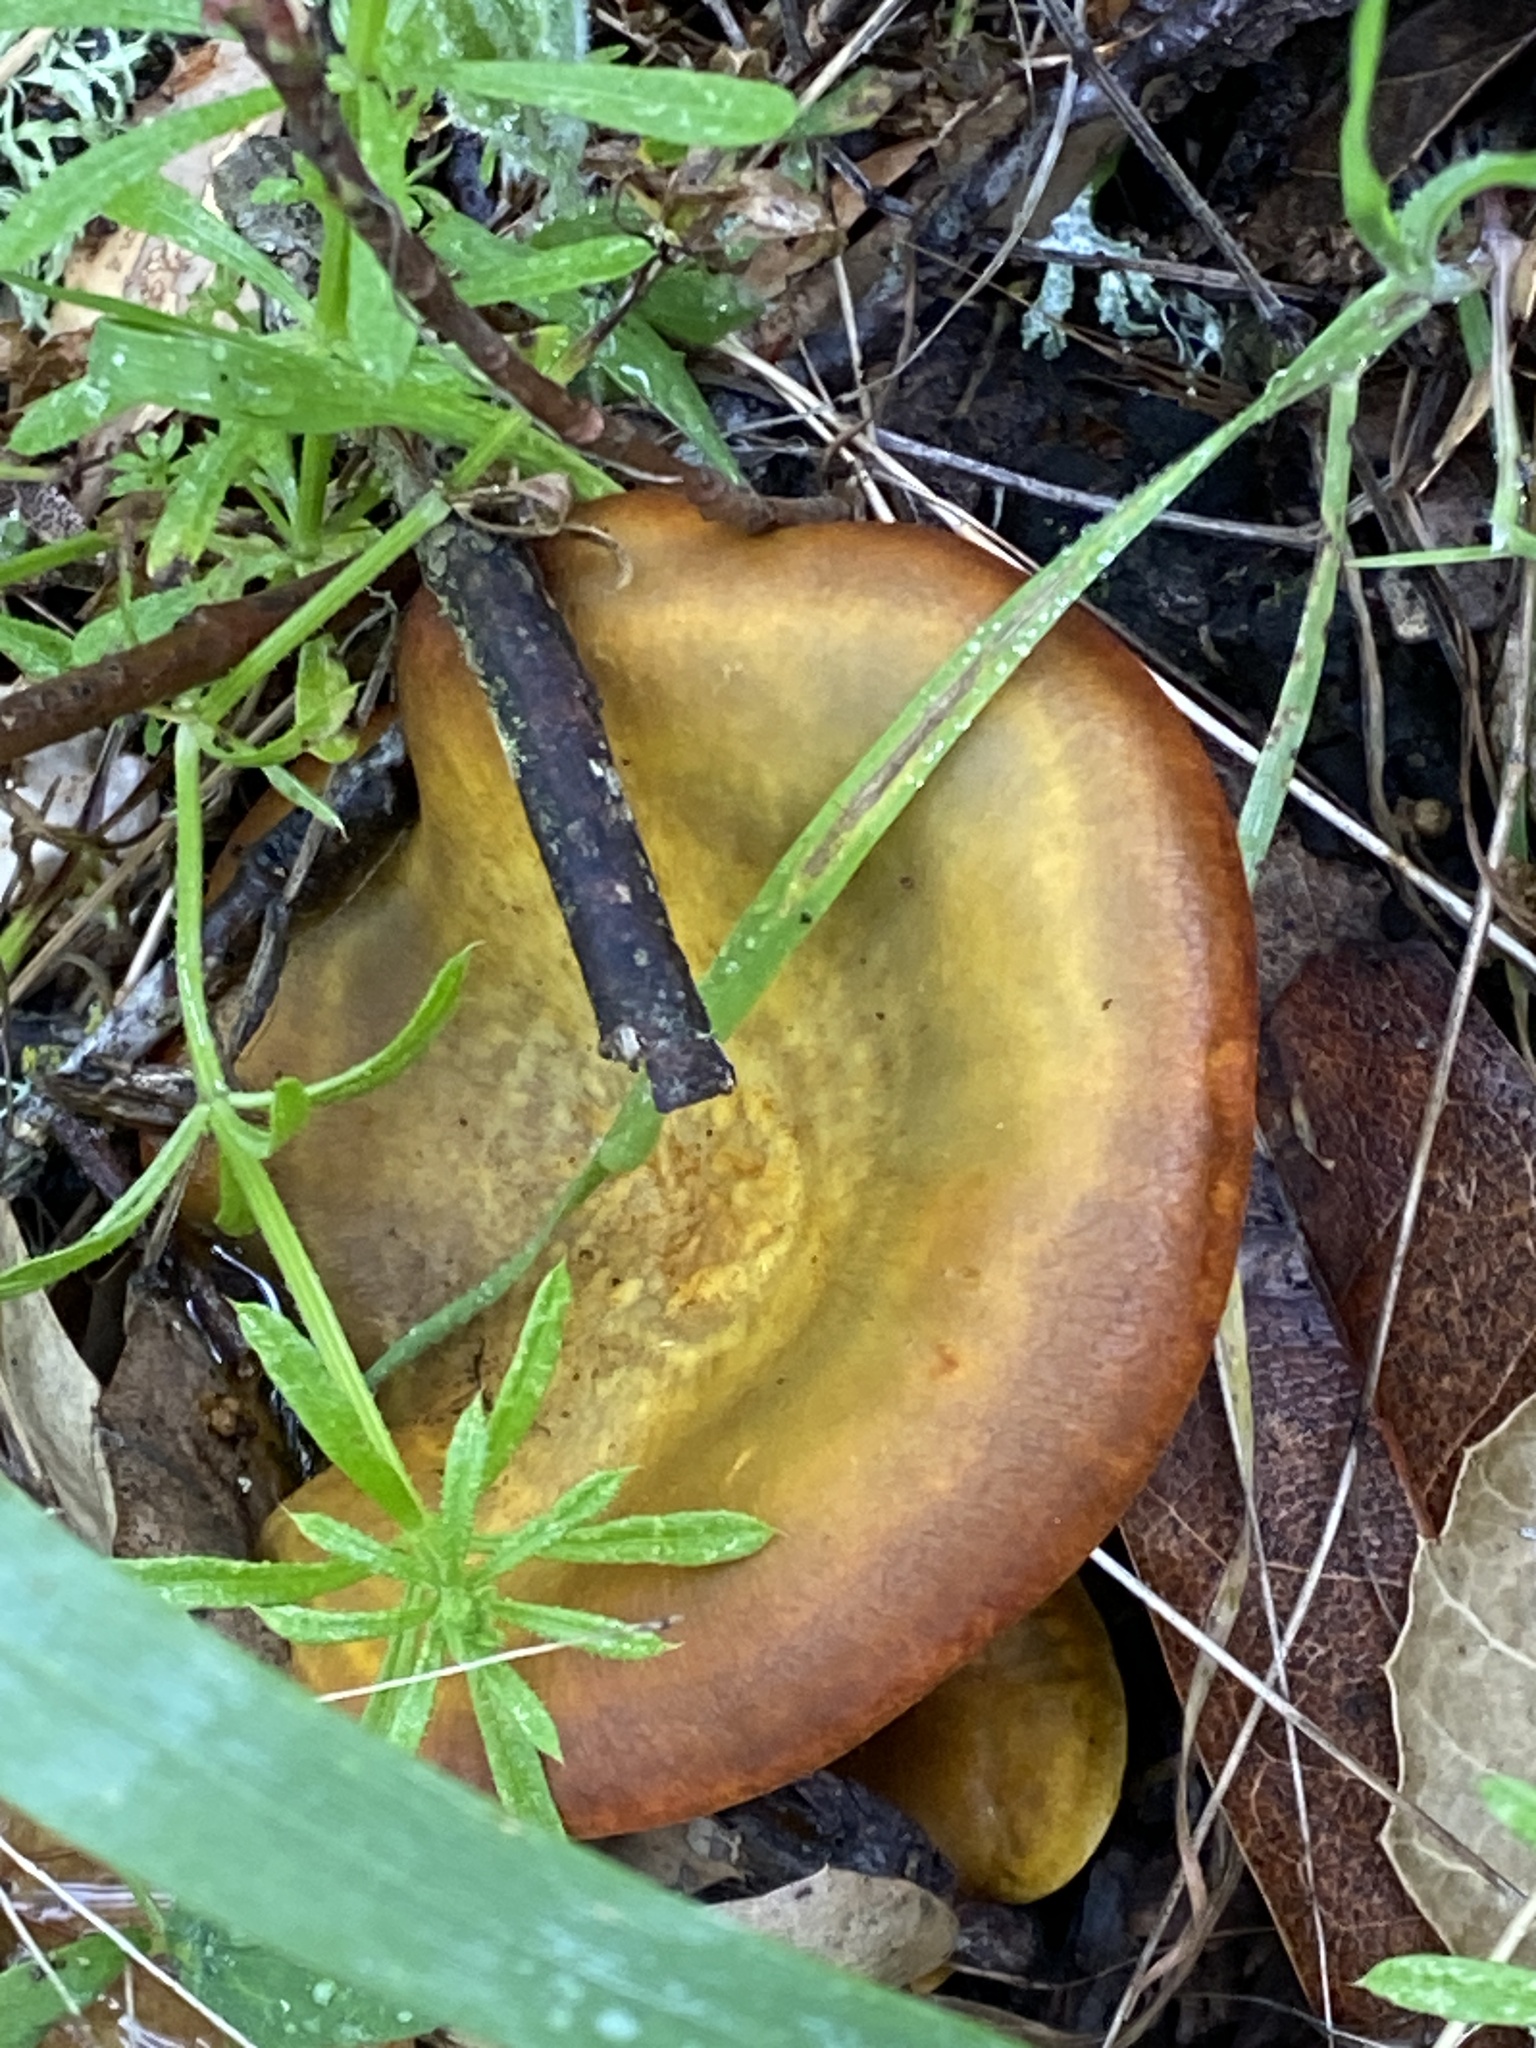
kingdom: Fungi
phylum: Basidiomycota
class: Agaricomycetes
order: Agaricales
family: Omphalotaceae
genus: Omphalotus
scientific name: Omphalotus olivascens
